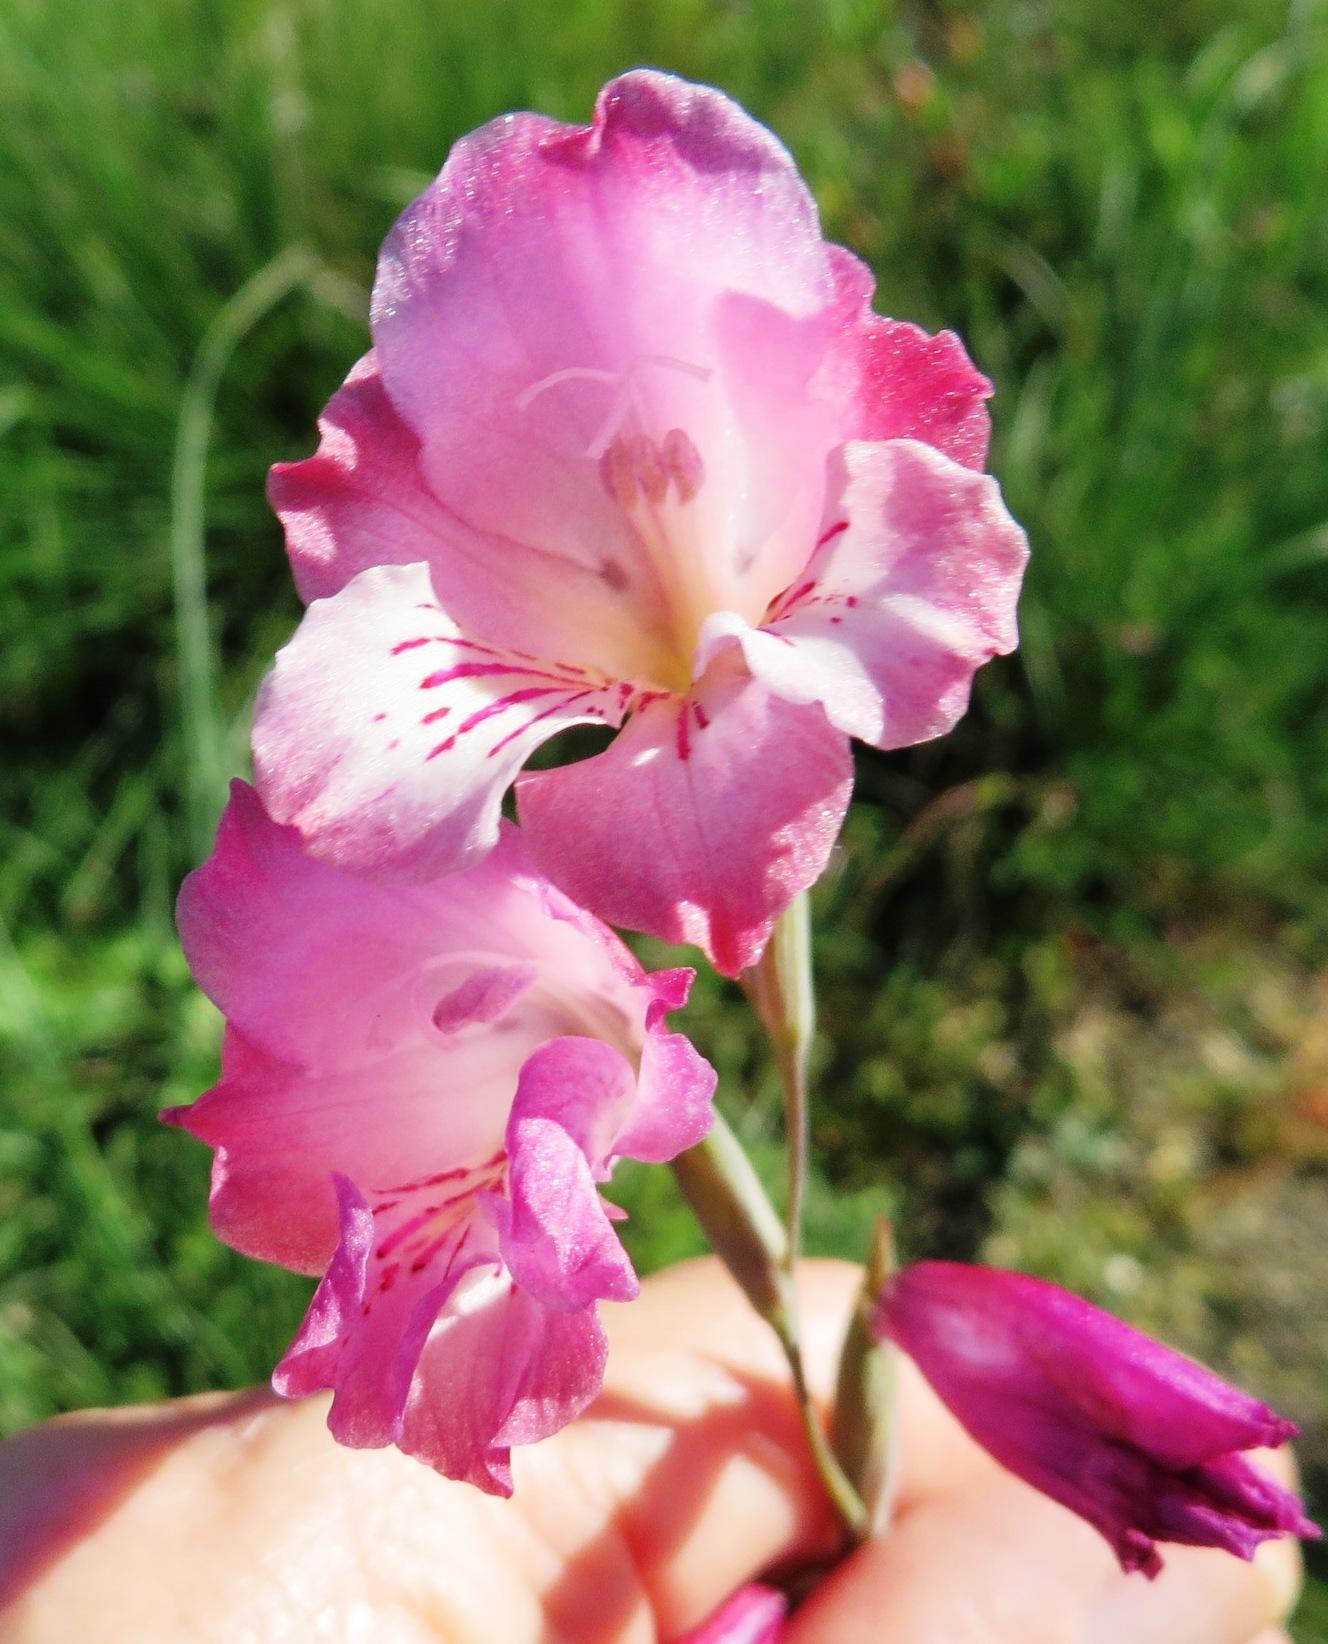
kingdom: Plantae
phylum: Tracheophyta
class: Liliopsida
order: Asparagales
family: Iridaceae
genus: Gladiolus
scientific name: Gladiolus hirsutus
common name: Small pink afrikaner
